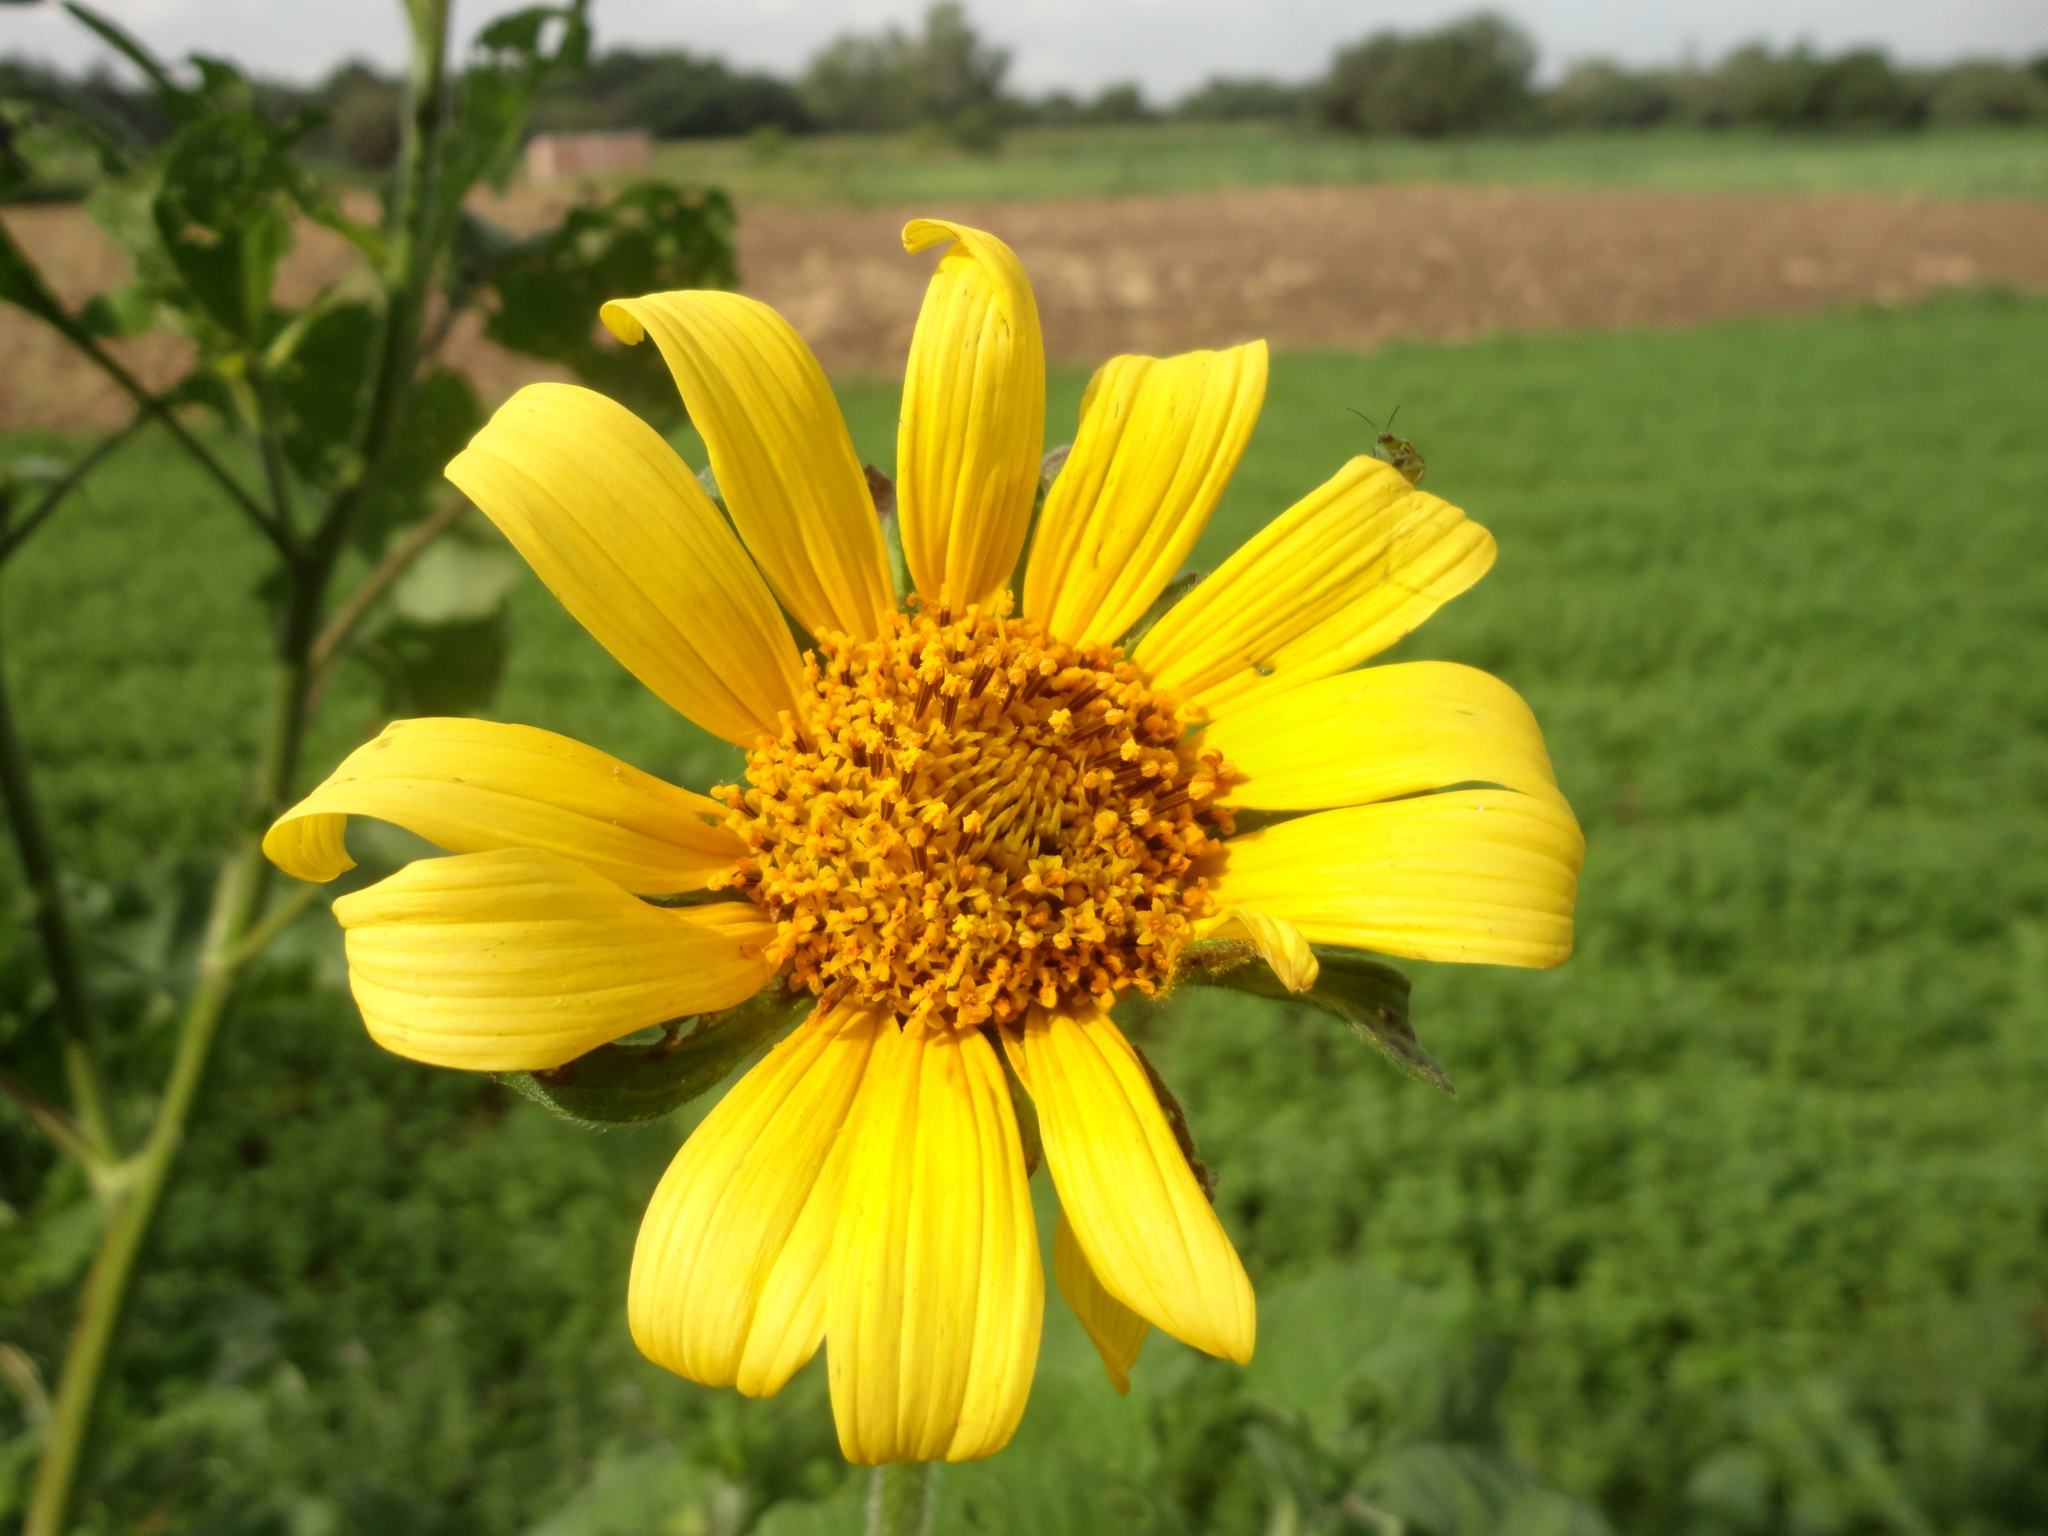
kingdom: Plantae
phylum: Tracheophyta
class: Magnoliopsida
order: Asterales
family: Asteraceae
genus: Tithonia
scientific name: Tithonia tubaeformis
